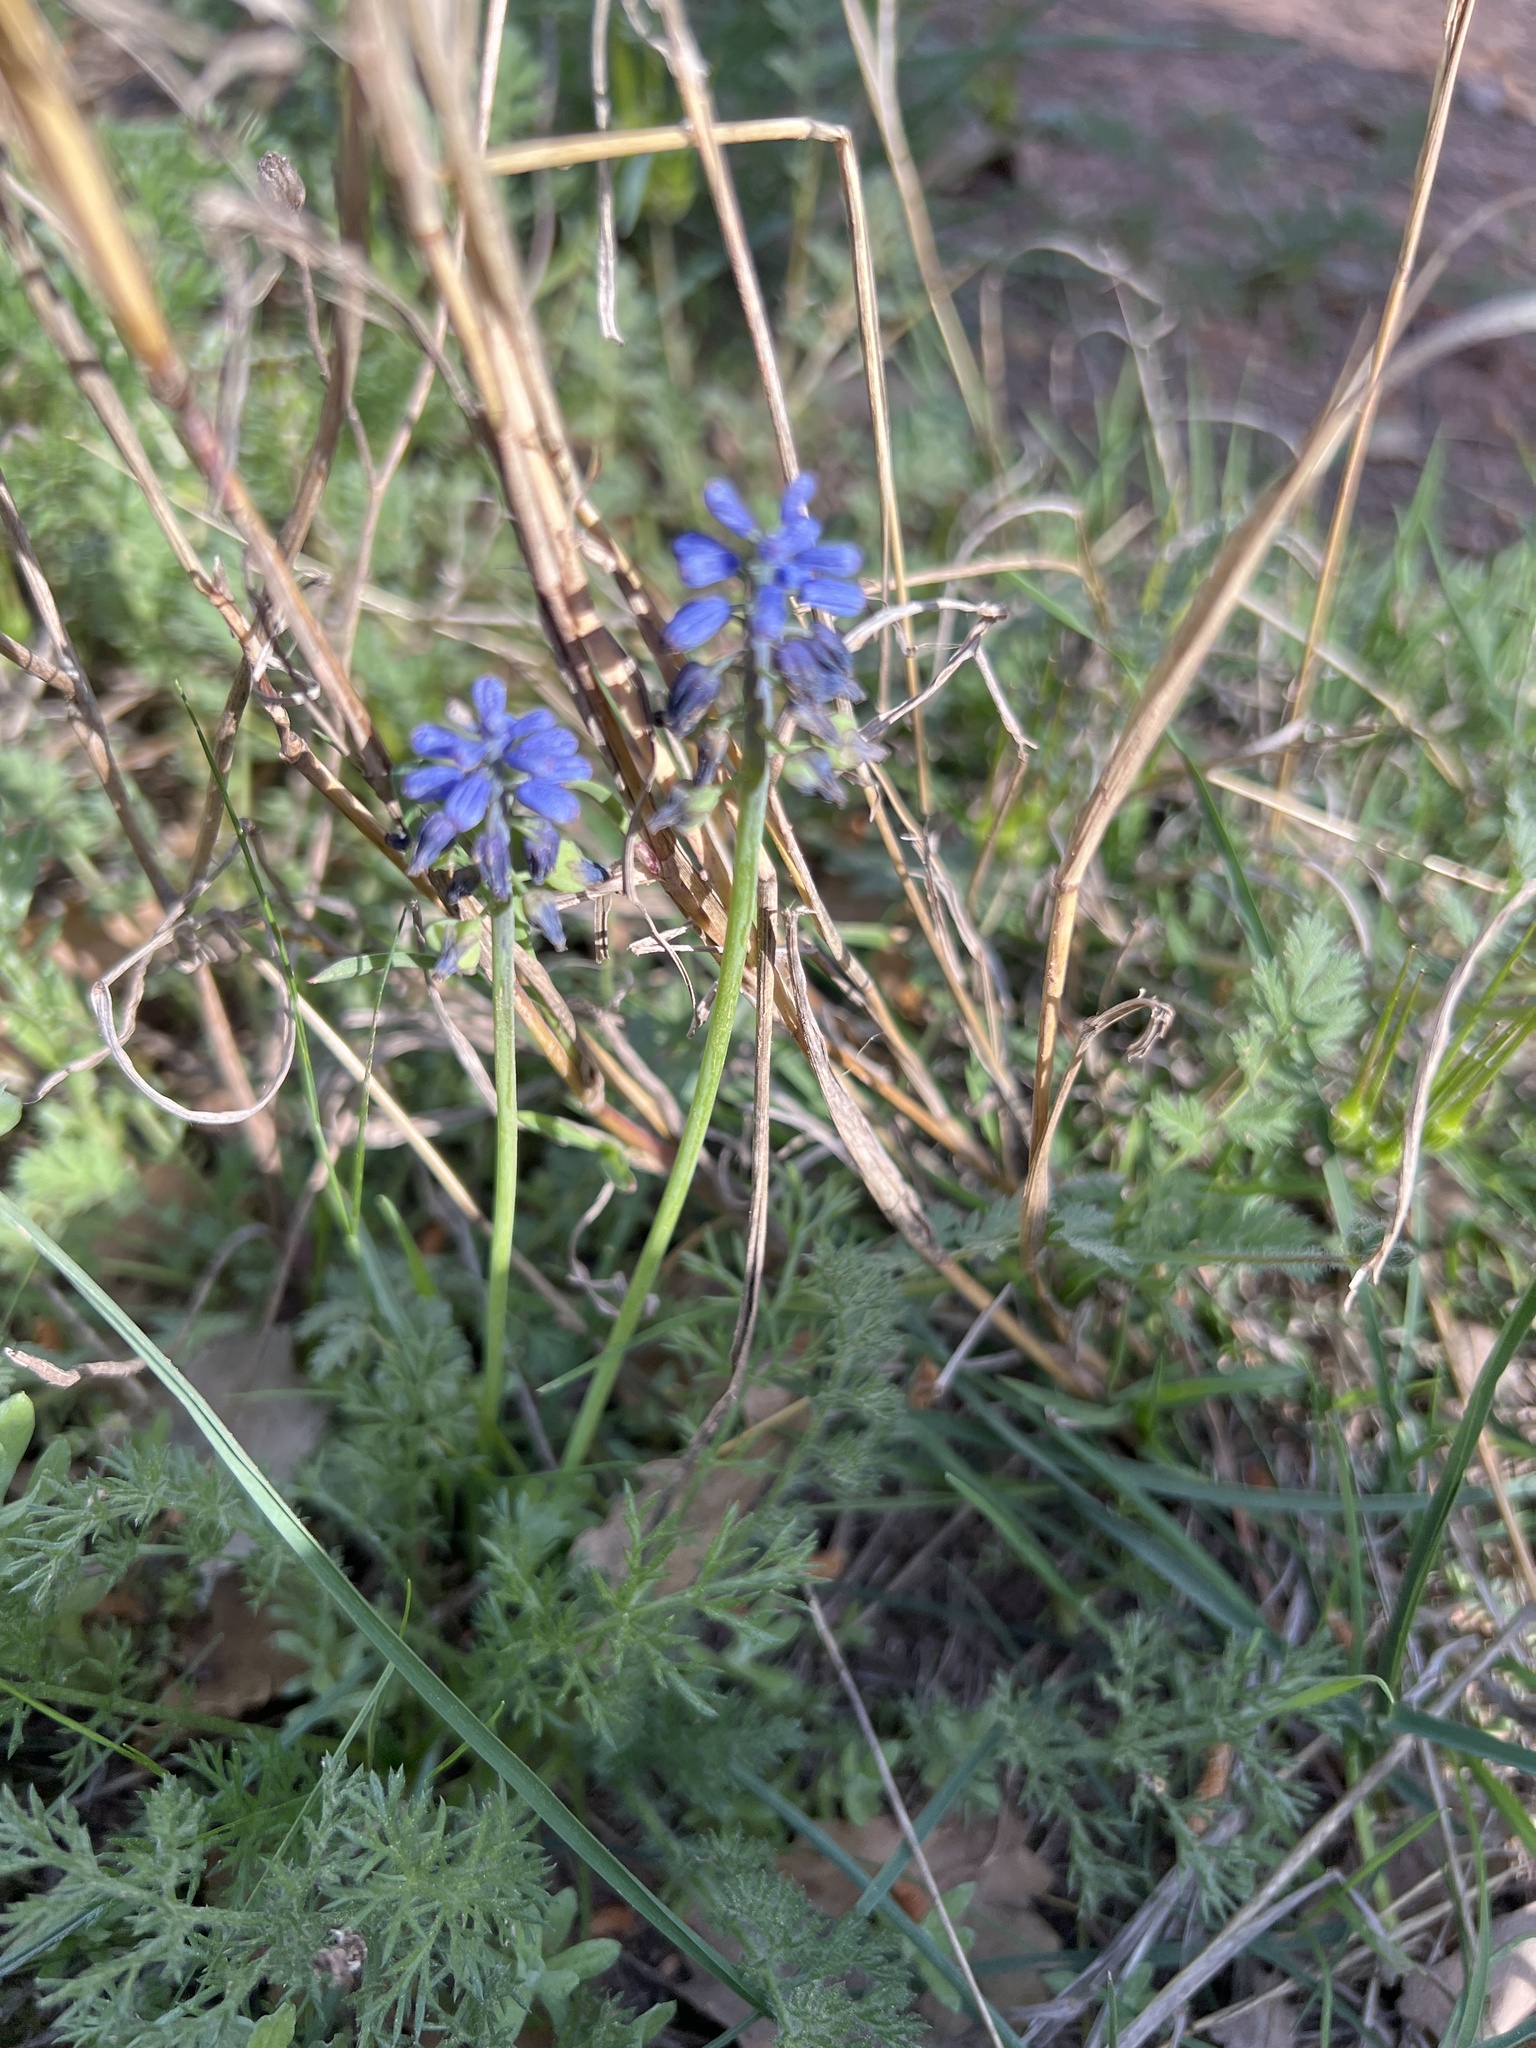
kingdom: Plantae
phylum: Tracheophyta
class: Liliopsida
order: Asparagales
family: Asparagaceae
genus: Muscari
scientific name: Muscari neglectum
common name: Grape-hyacinth
